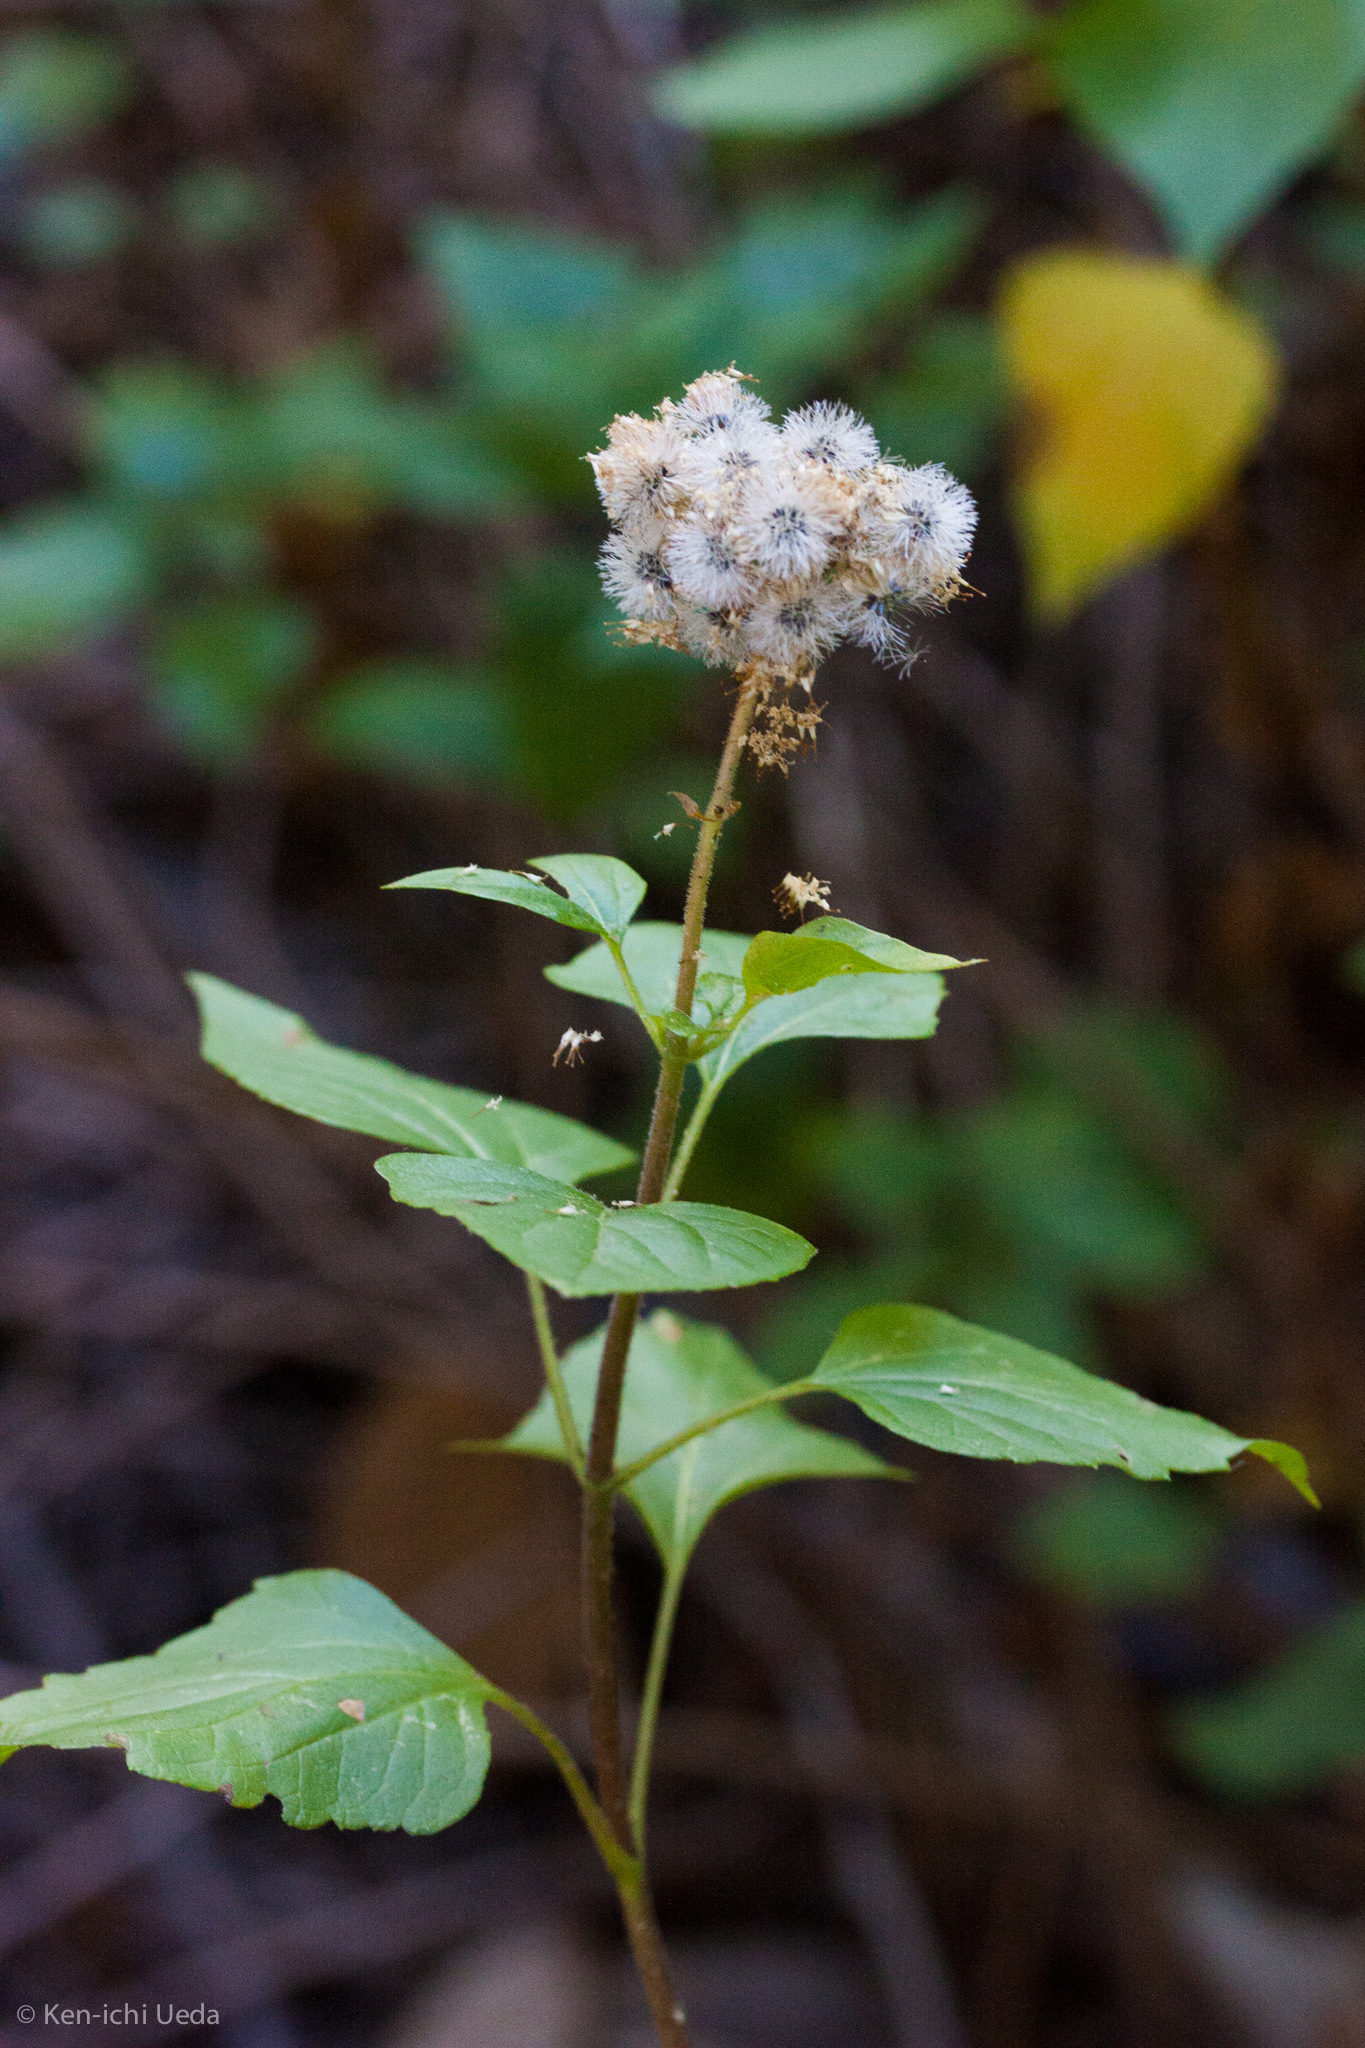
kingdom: Plantae
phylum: Tracheophyta
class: Magnoliopsida
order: Asterales
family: Asteraceae
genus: Ageratina
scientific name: Ageratina adenophora
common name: Sticky snakeroot
